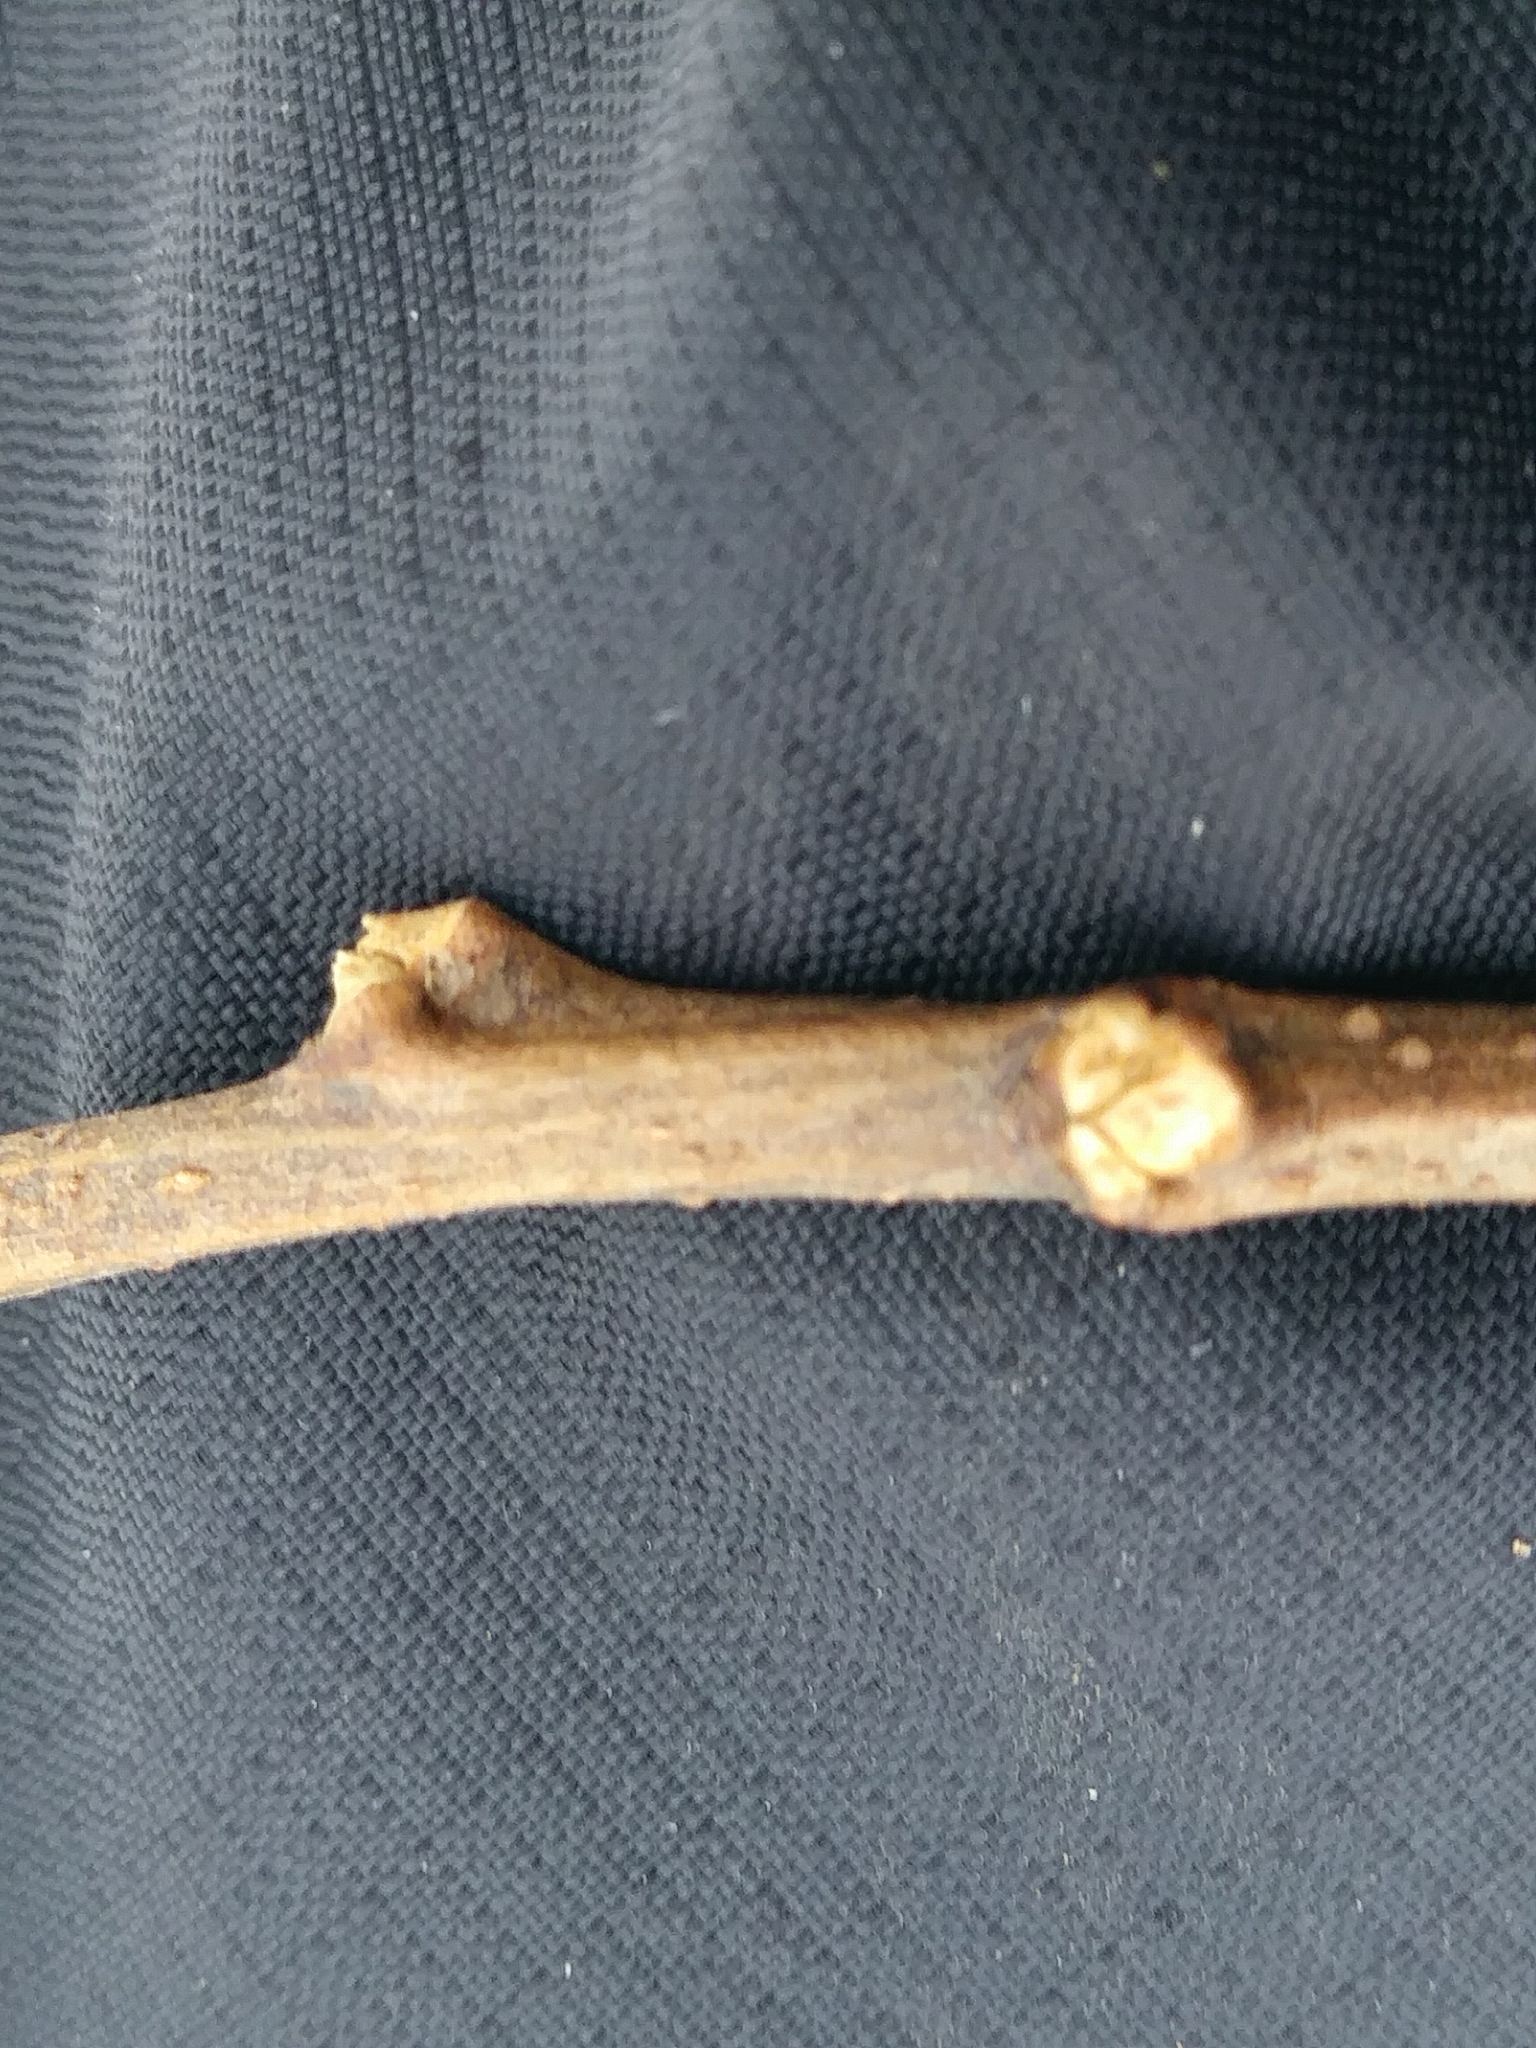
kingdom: Plantae
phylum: Tracheophyta
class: Magnoliopsida
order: Fabales
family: Fabaceae
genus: Robinia
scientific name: Robinia pseudoacacia
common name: Black locust
